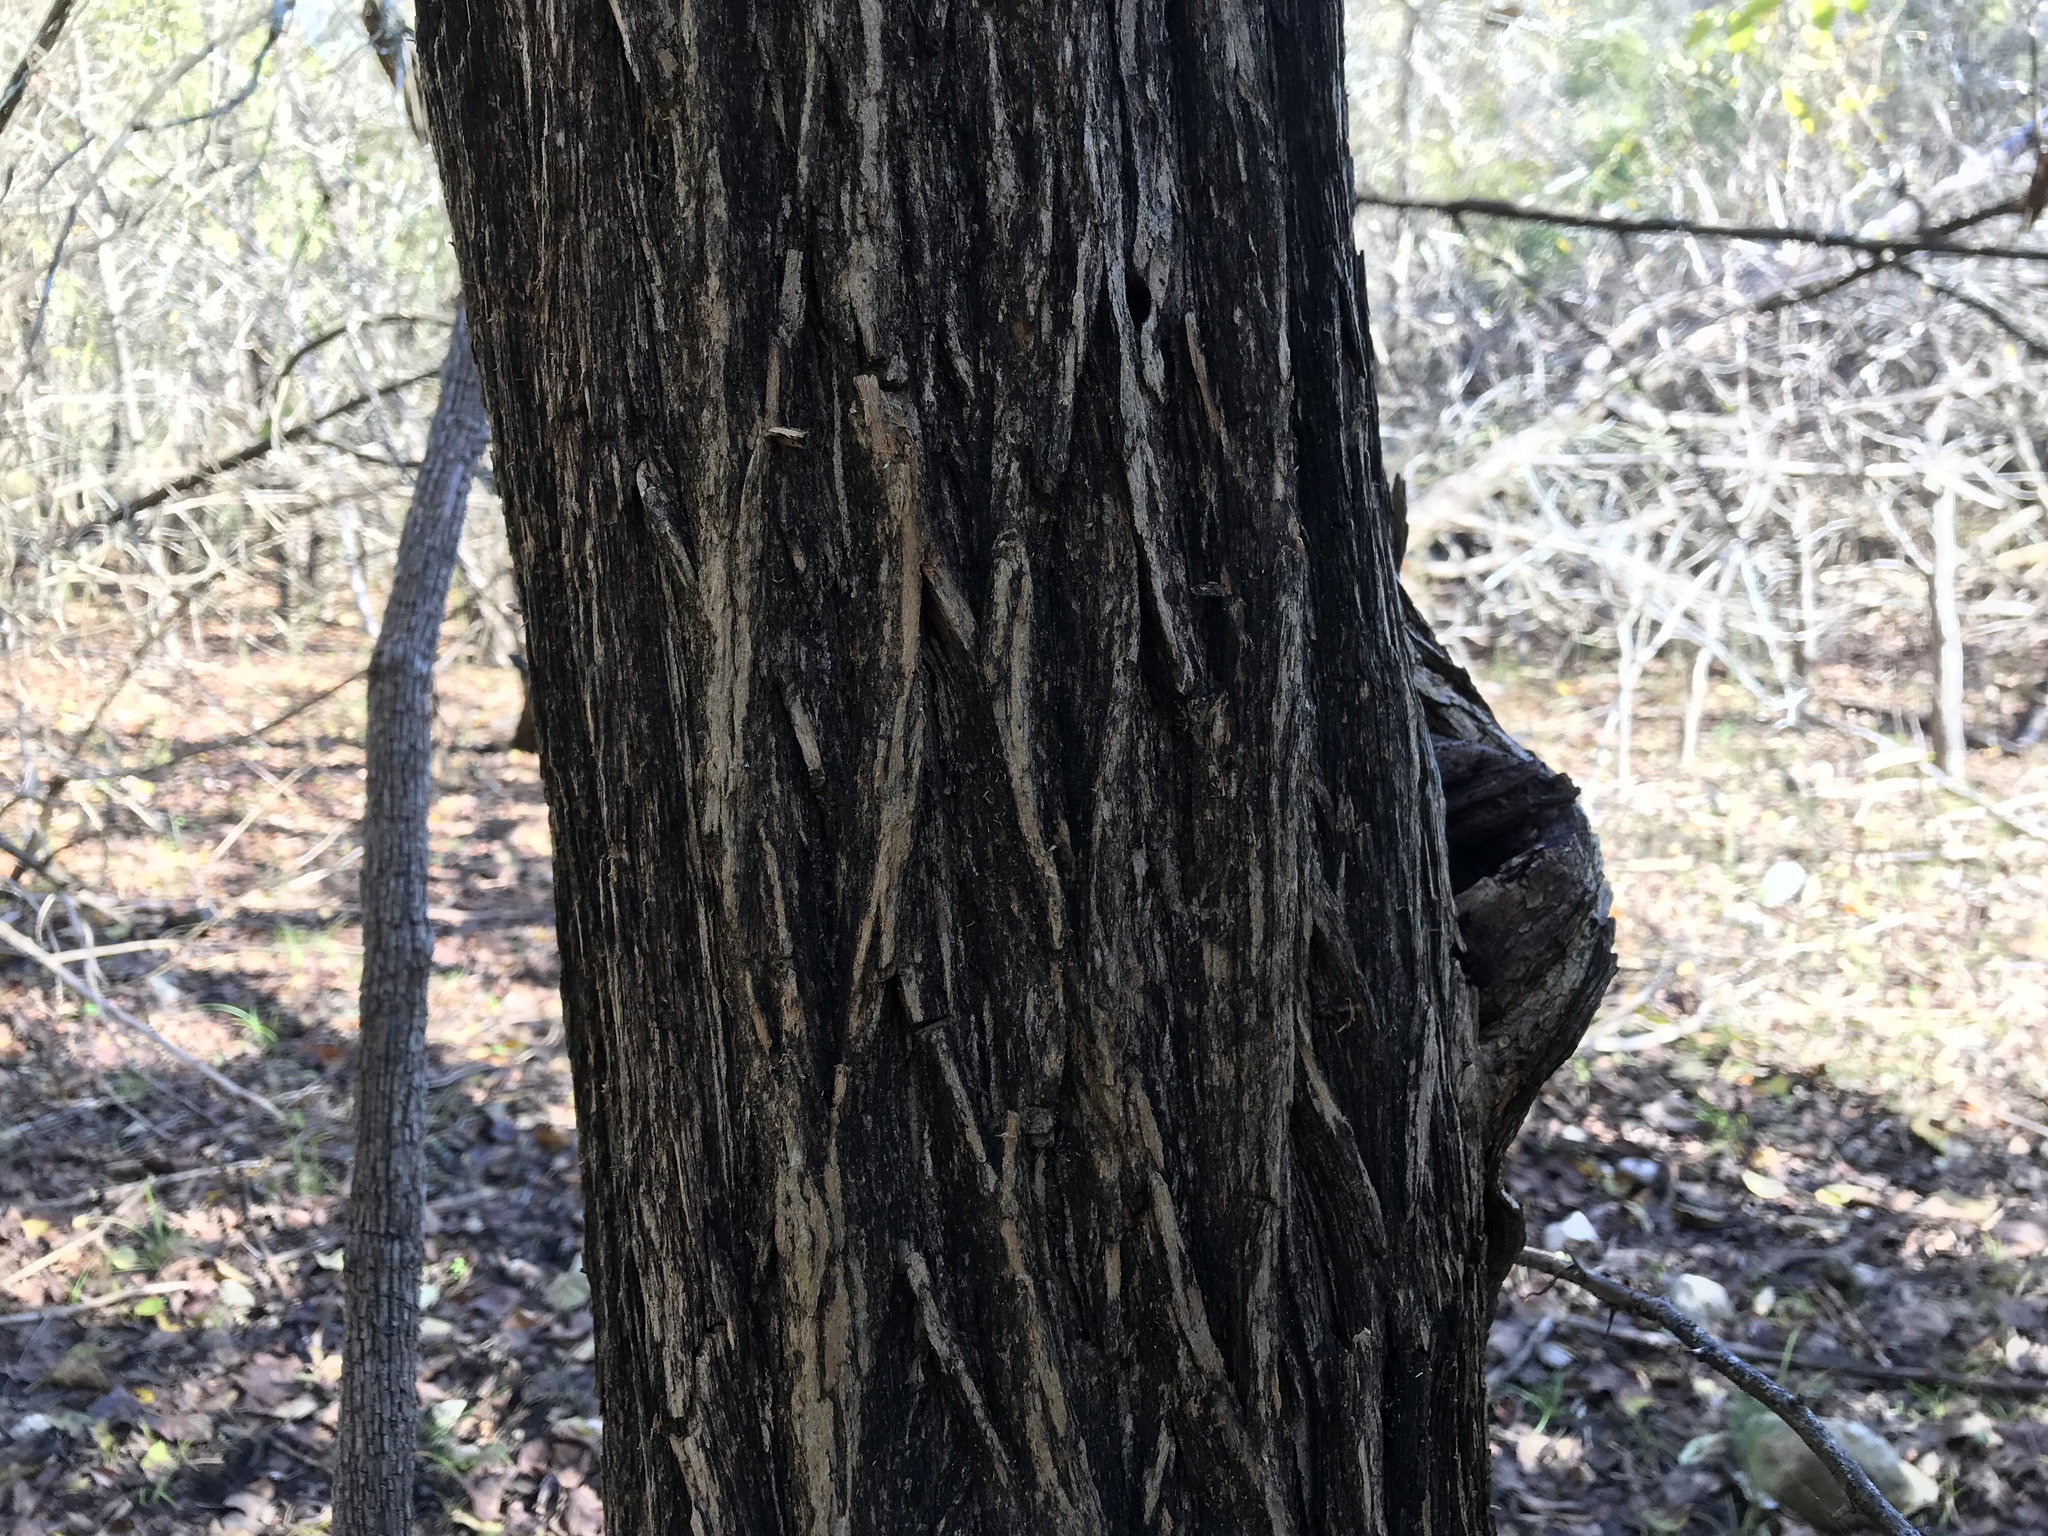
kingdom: Plantae
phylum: Tracheophyta
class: Magnoliopsida
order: Rosales
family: Moraceae
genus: Maclura
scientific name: Maclura pomifera
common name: Osage-orange
